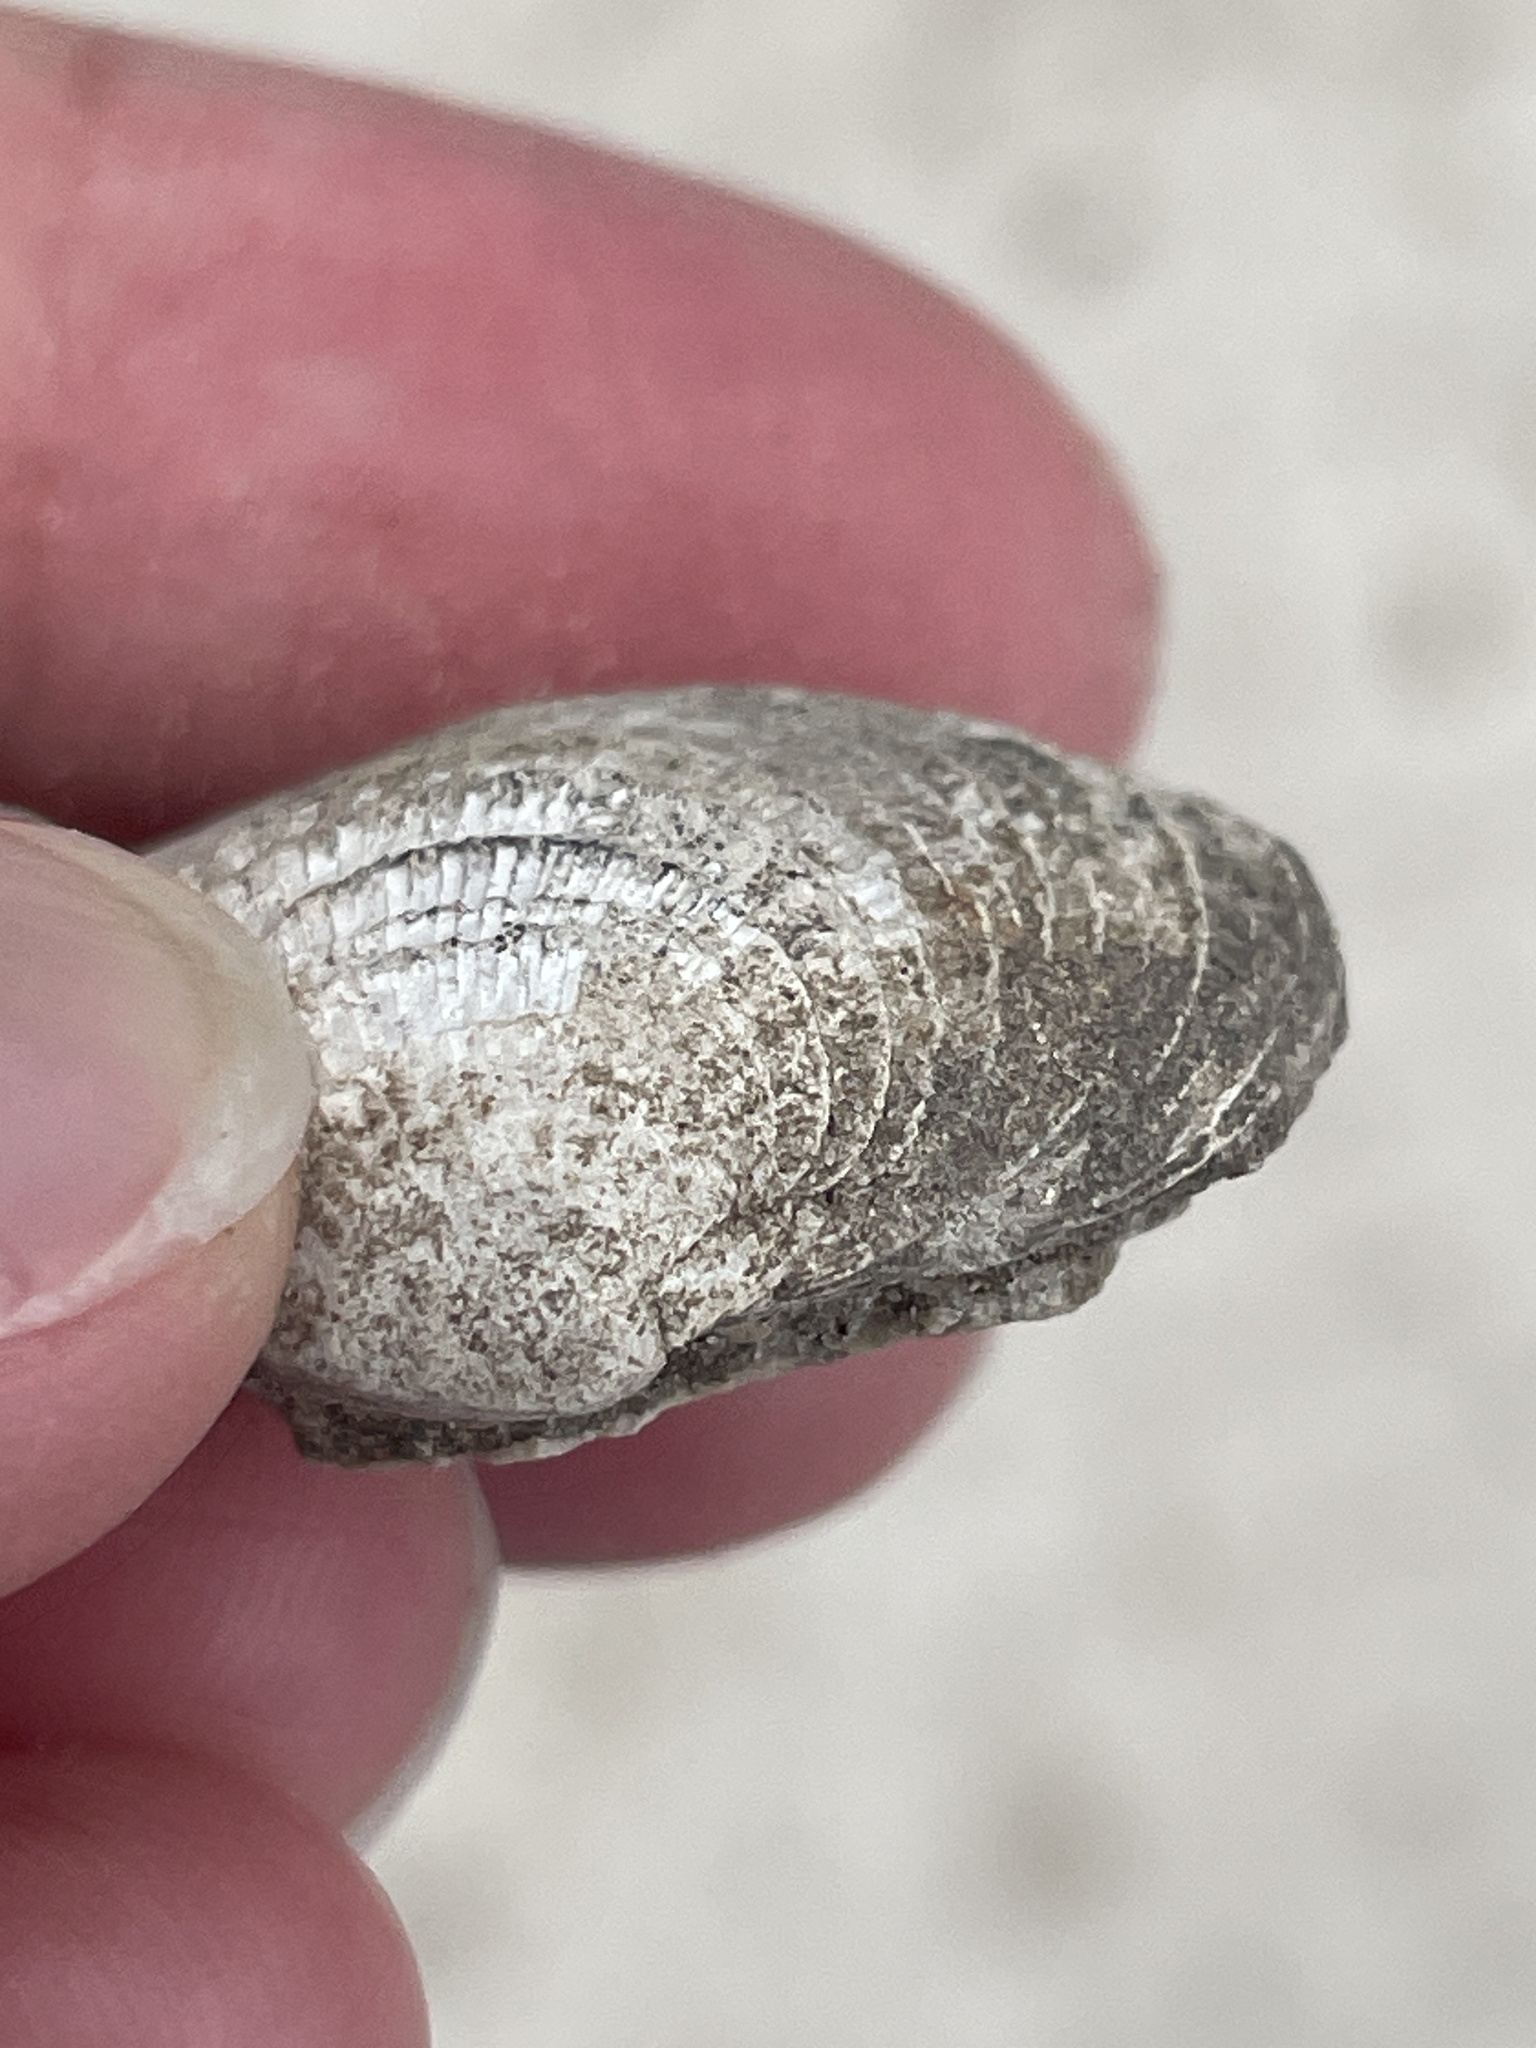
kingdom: Animalia
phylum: Mollusca
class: Bivalvia
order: Venerida
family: Veneridae
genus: Chione
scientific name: Chione elevata
